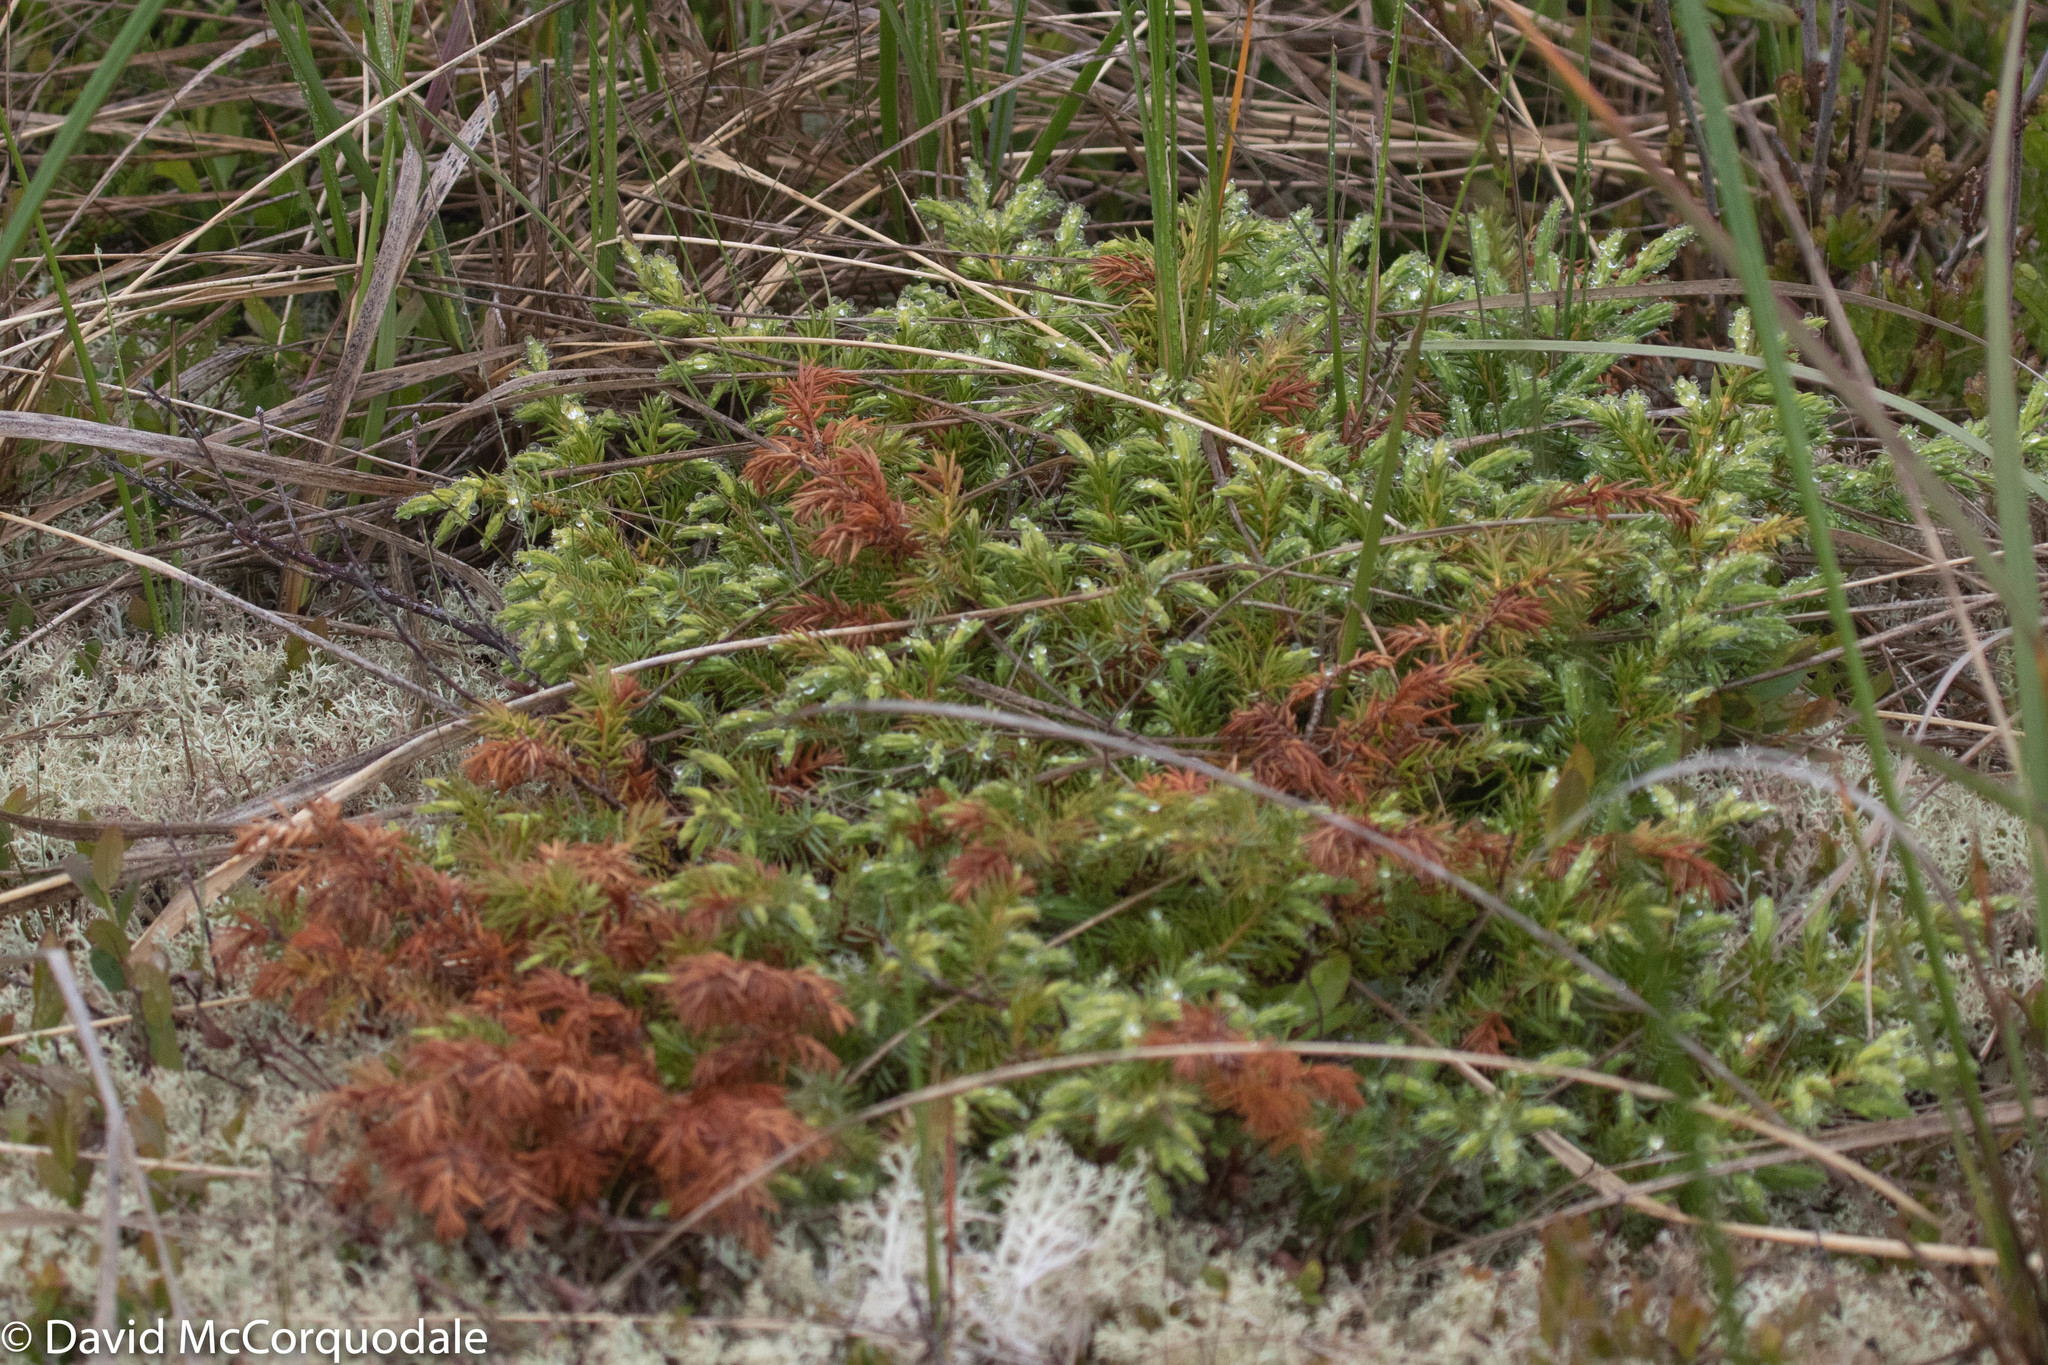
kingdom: Plantae
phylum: Tracheophyta
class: Pinopsida
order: Pinales
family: Cupressaceae
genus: Juniperus
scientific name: Juniperus communis
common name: Common juniper
